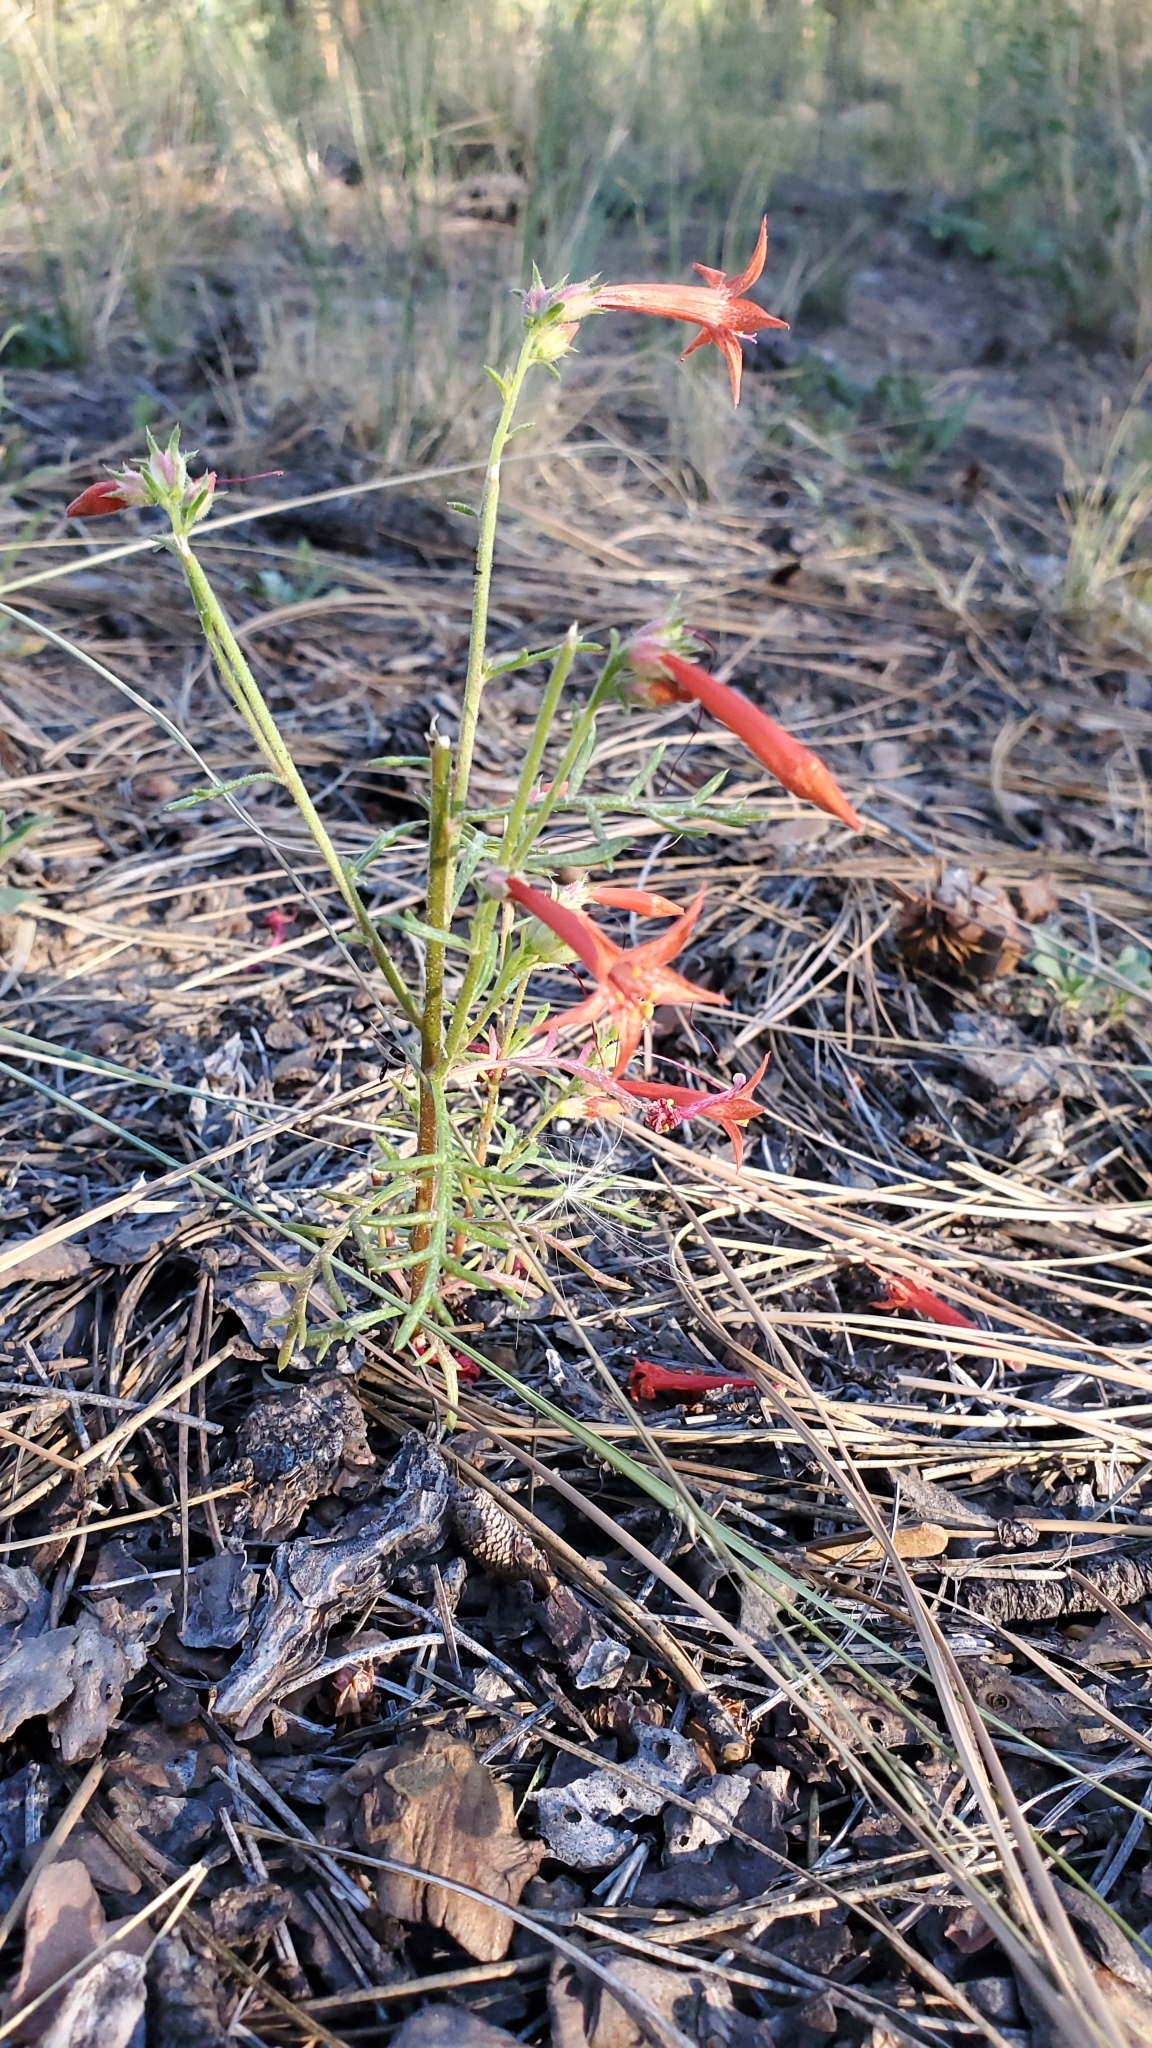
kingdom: Plantae
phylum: Tracheophyta
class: Magnoliopsida
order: Ericales
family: Polemoniaceae
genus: Ipomopsis
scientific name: Ipomopsis aggregata
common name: Scarlet gilia
